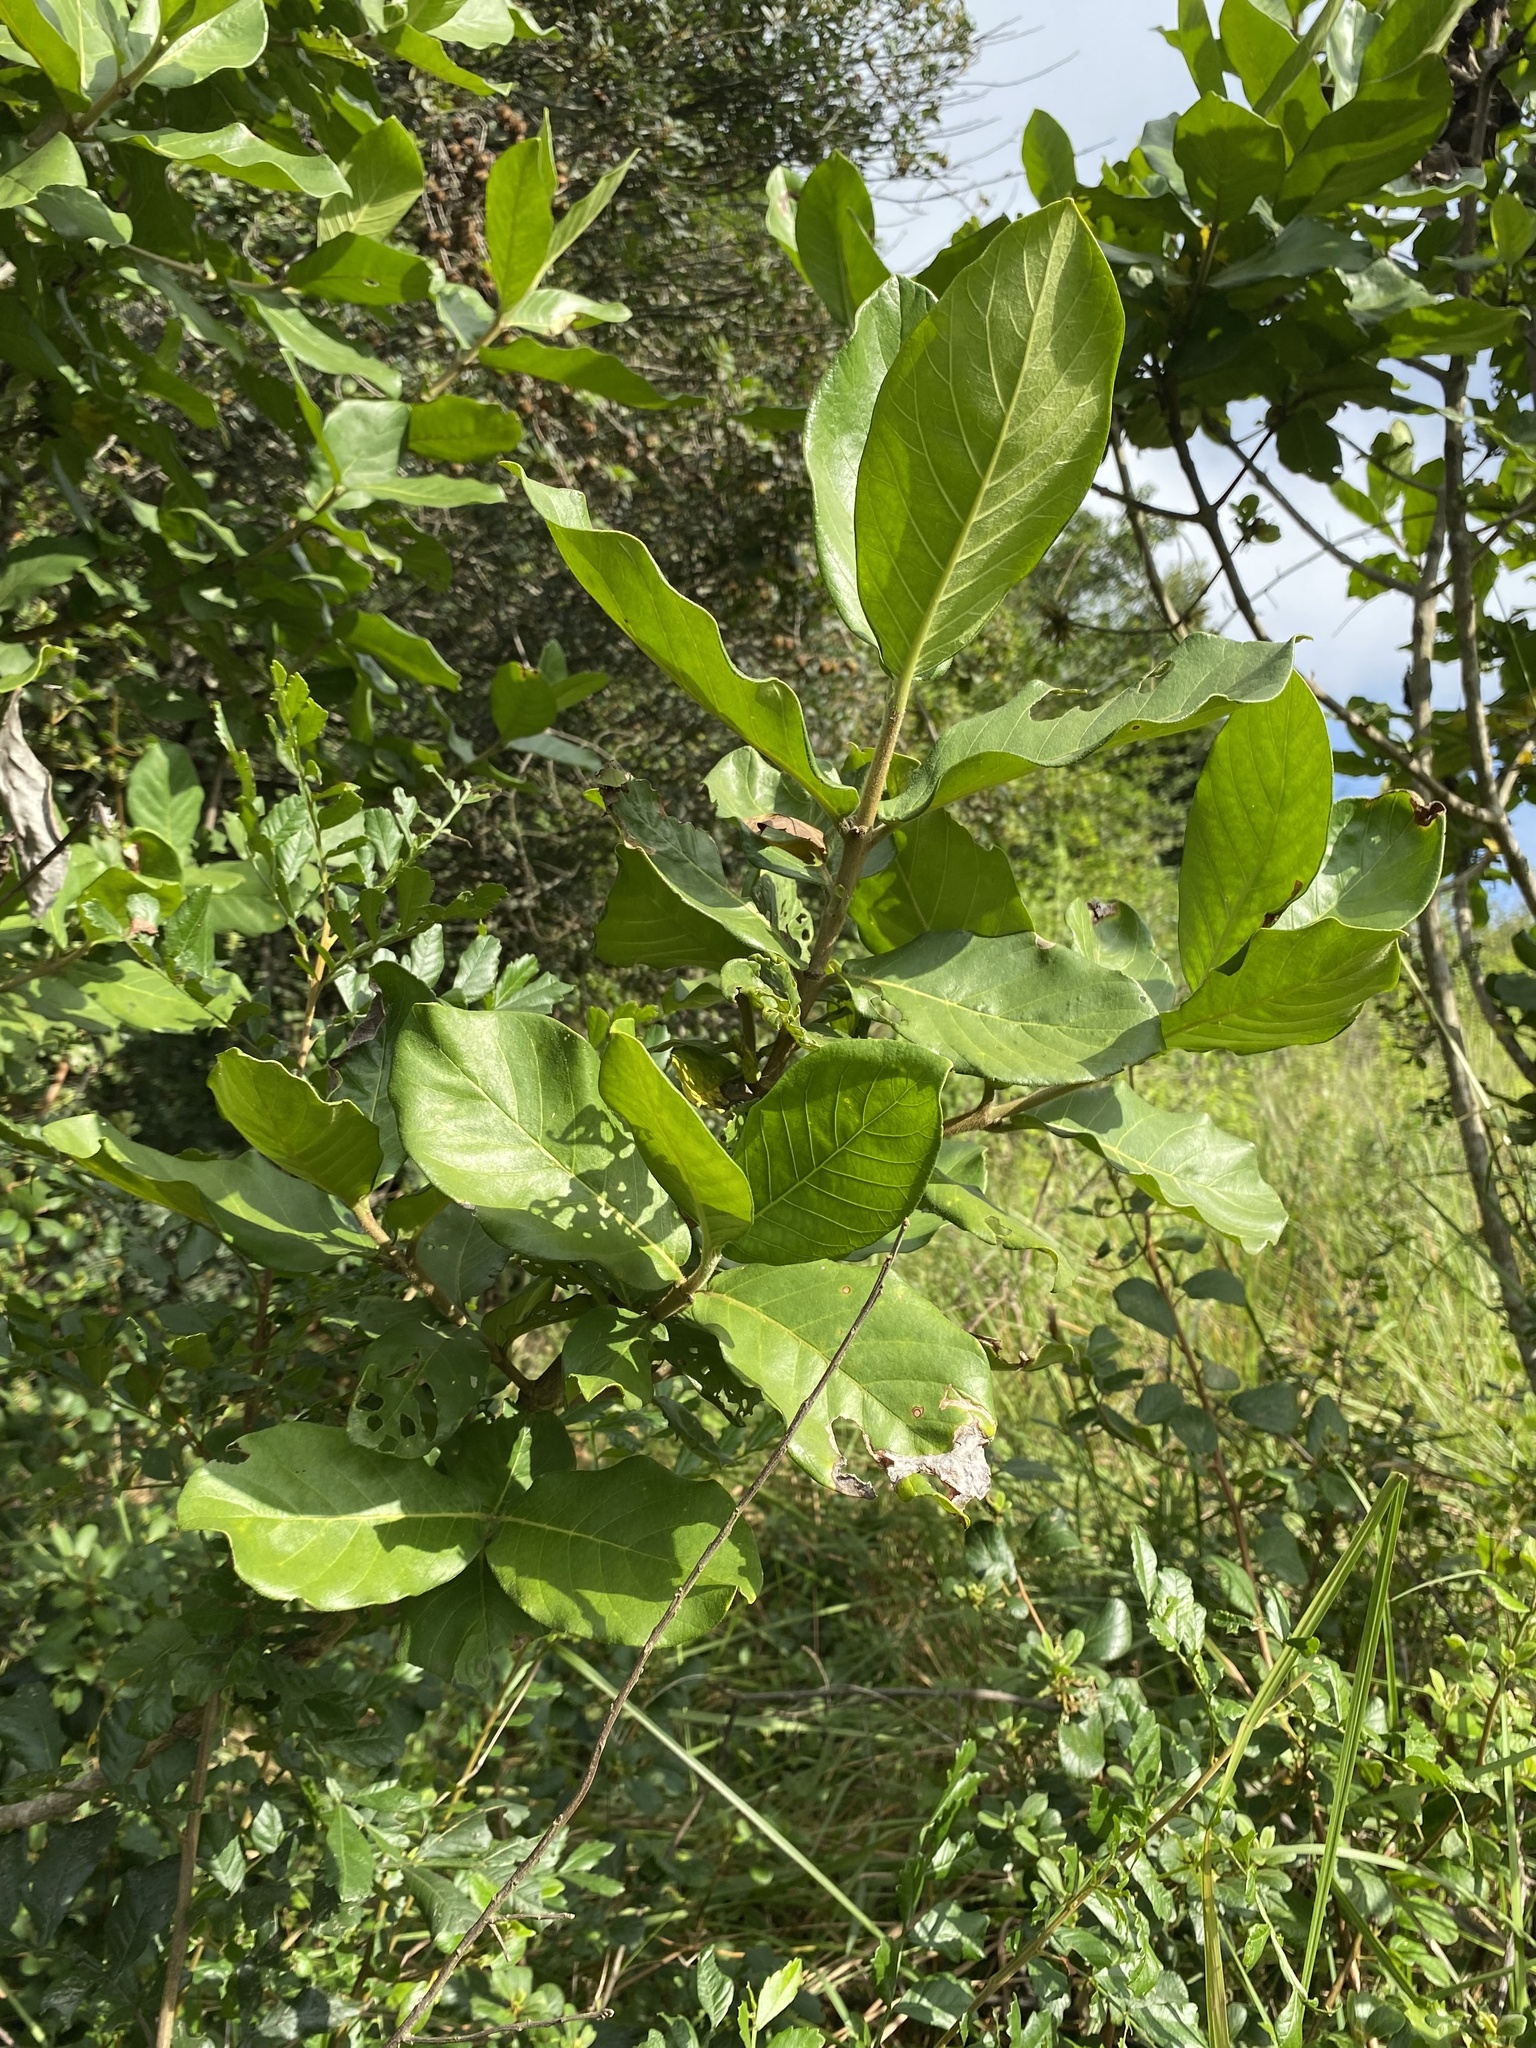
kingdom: Plantae
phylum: Tracheophyta
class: Magnoliopsida
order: Gentianales
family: Rubiaceae
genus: Burchellia
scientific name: Burchellia bubalina
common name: Wild pomegranate
